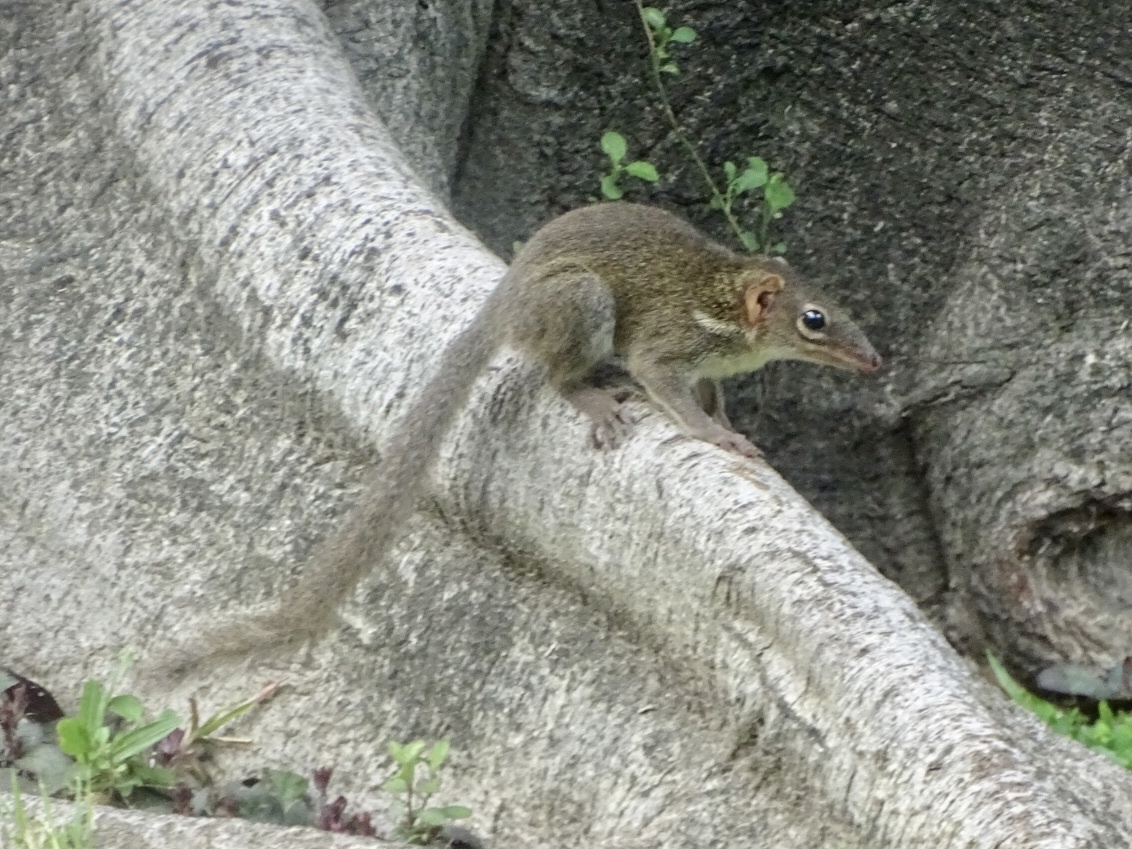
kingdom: Animalia
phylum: Chordata
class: Mammalia
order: Scandentia
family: Tupaiidae
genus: Tupaia
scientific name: Tupaia belangeri
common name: Northern treeshrew
